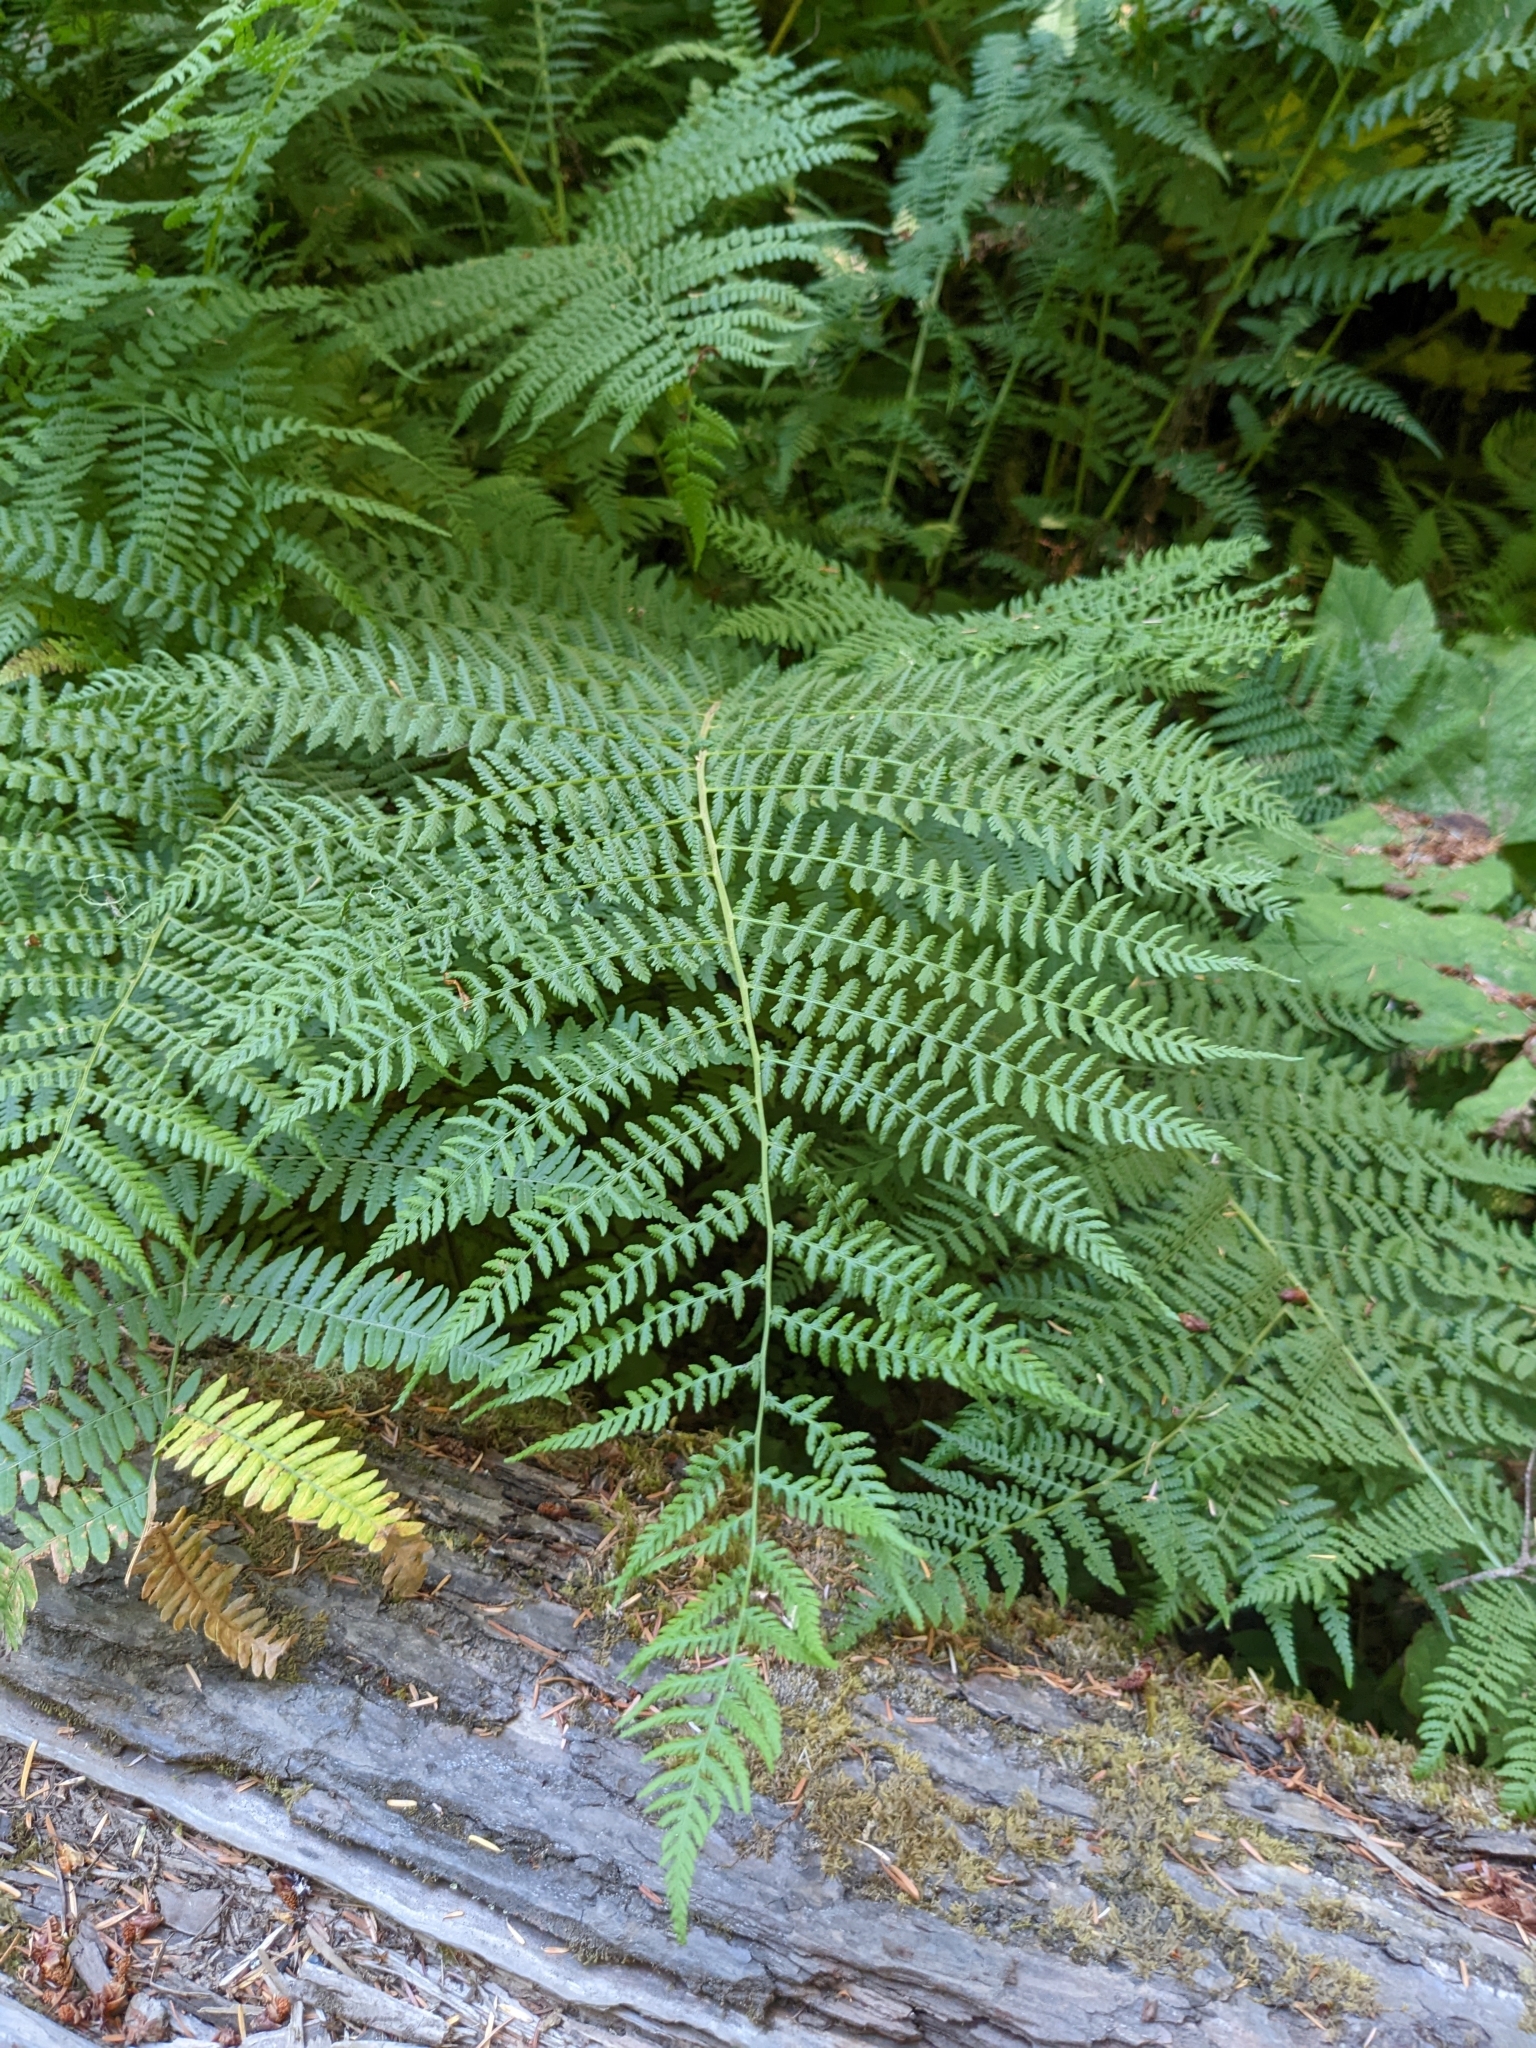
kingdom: Plantae
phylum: Tracheophyta
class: Polypodiopsida
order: Polypodiales
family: Athyriaceae
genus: Athyrium
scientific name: Athyrium cyclosorum
